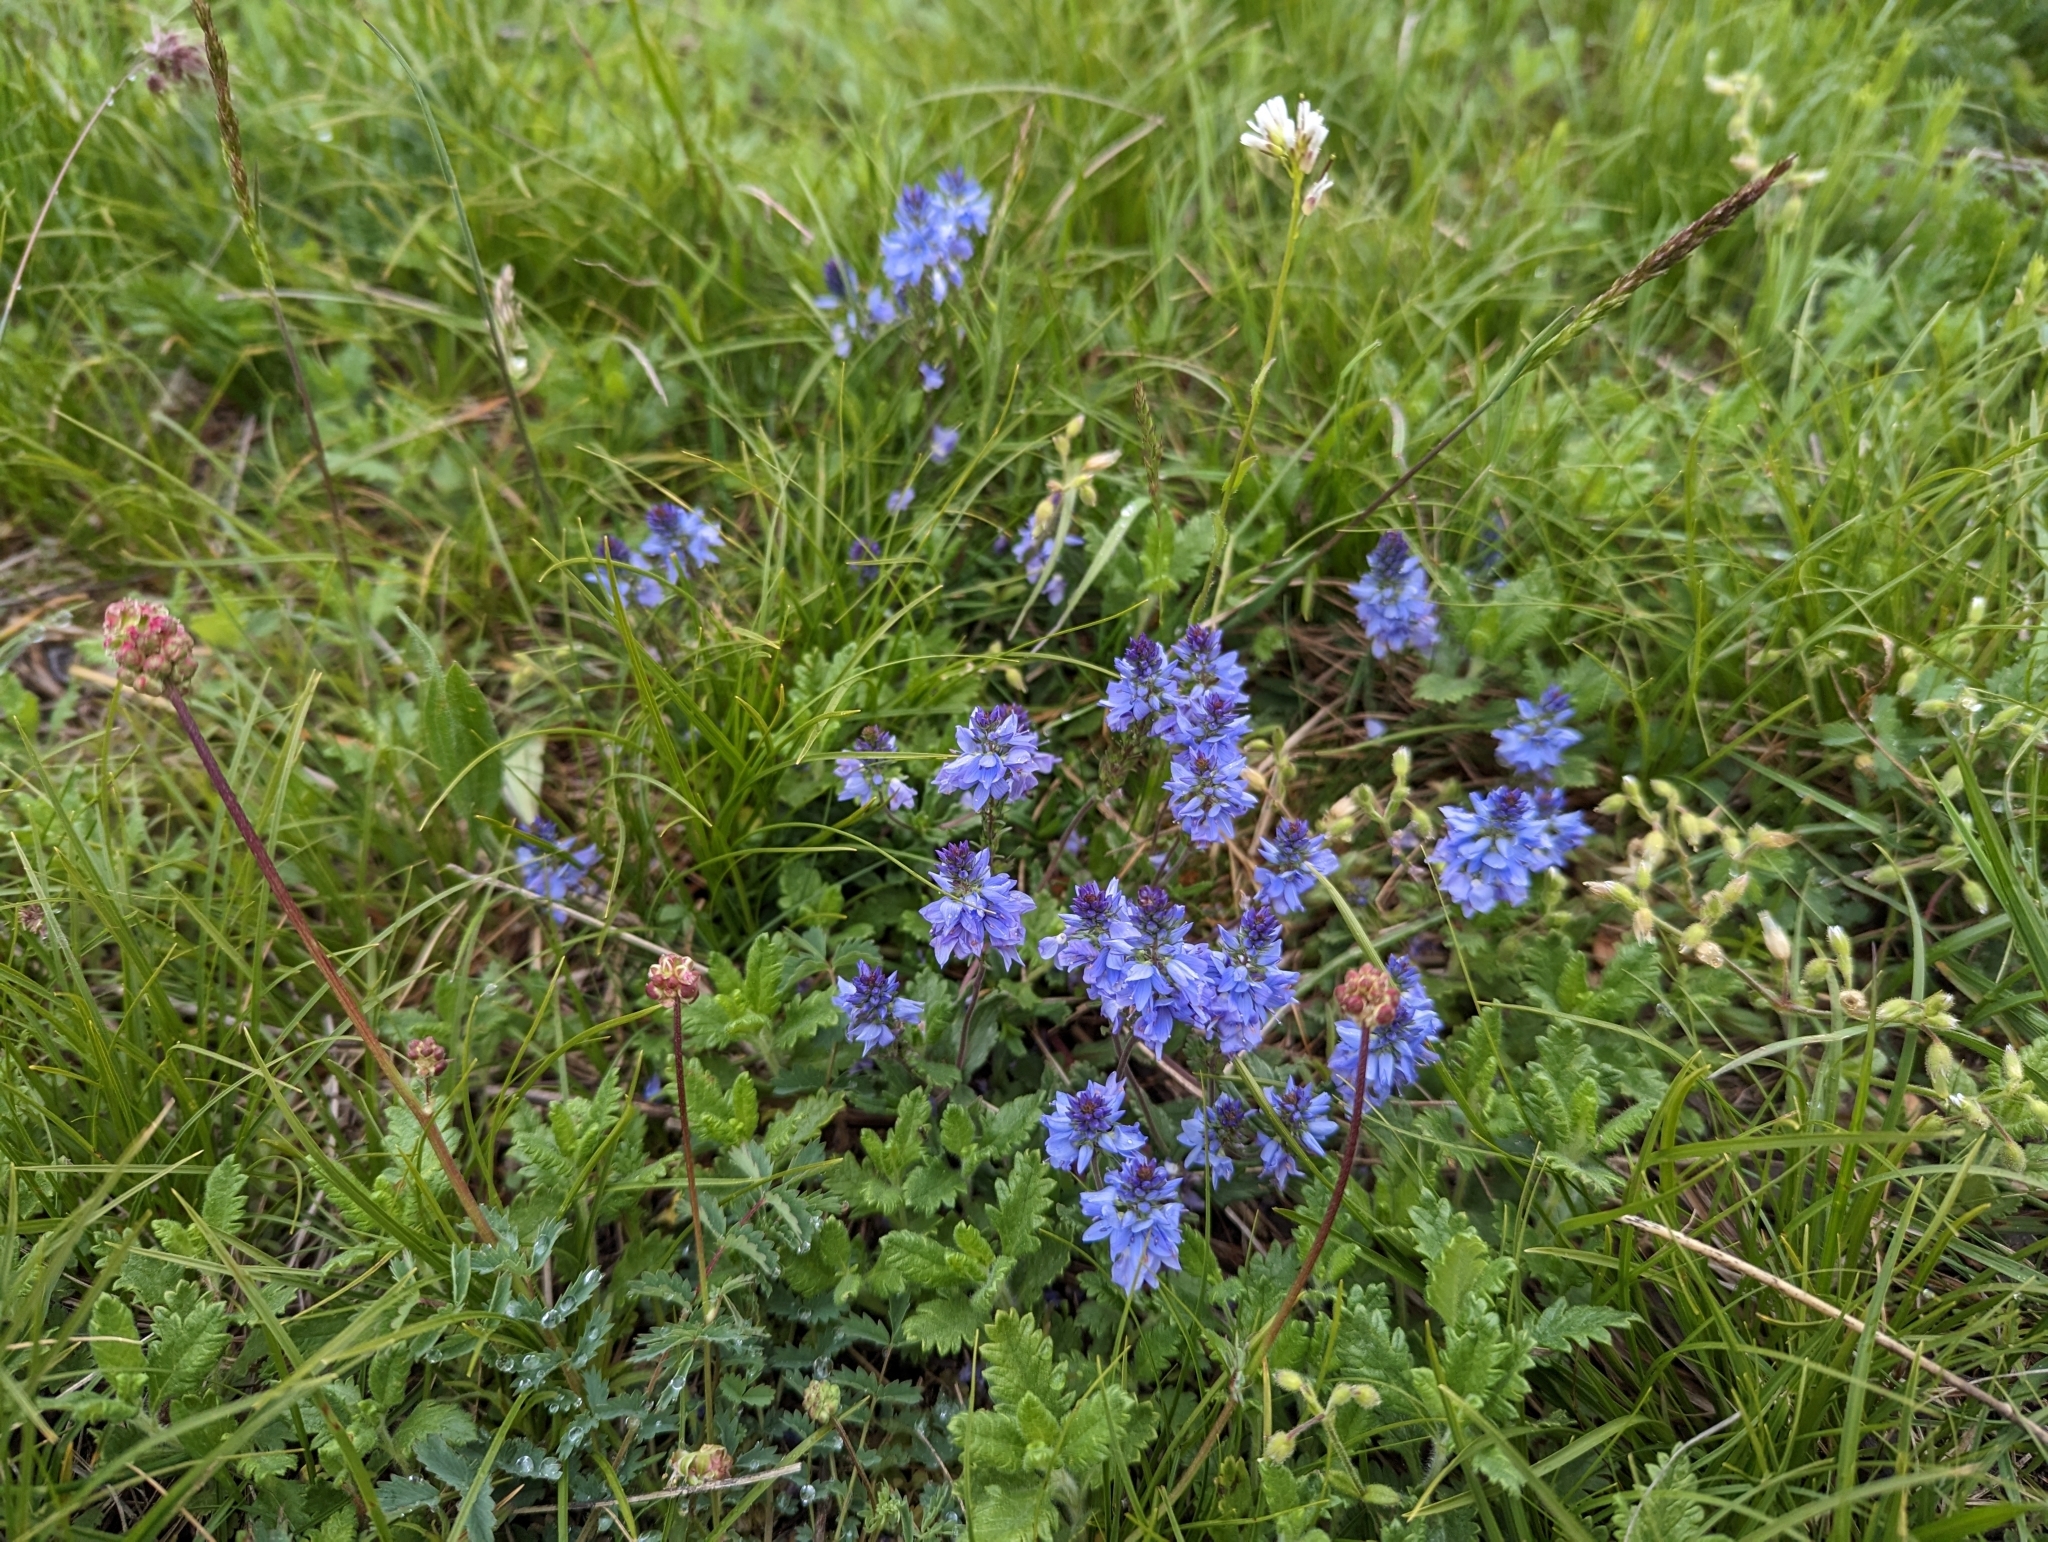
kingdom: Plantae
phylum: Tracheophyta
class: Magnoliopsida
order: Lamiales
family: Plantaginaceae
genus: Veronica
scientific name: Veronica prostrata
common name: Prostrate speedwell
